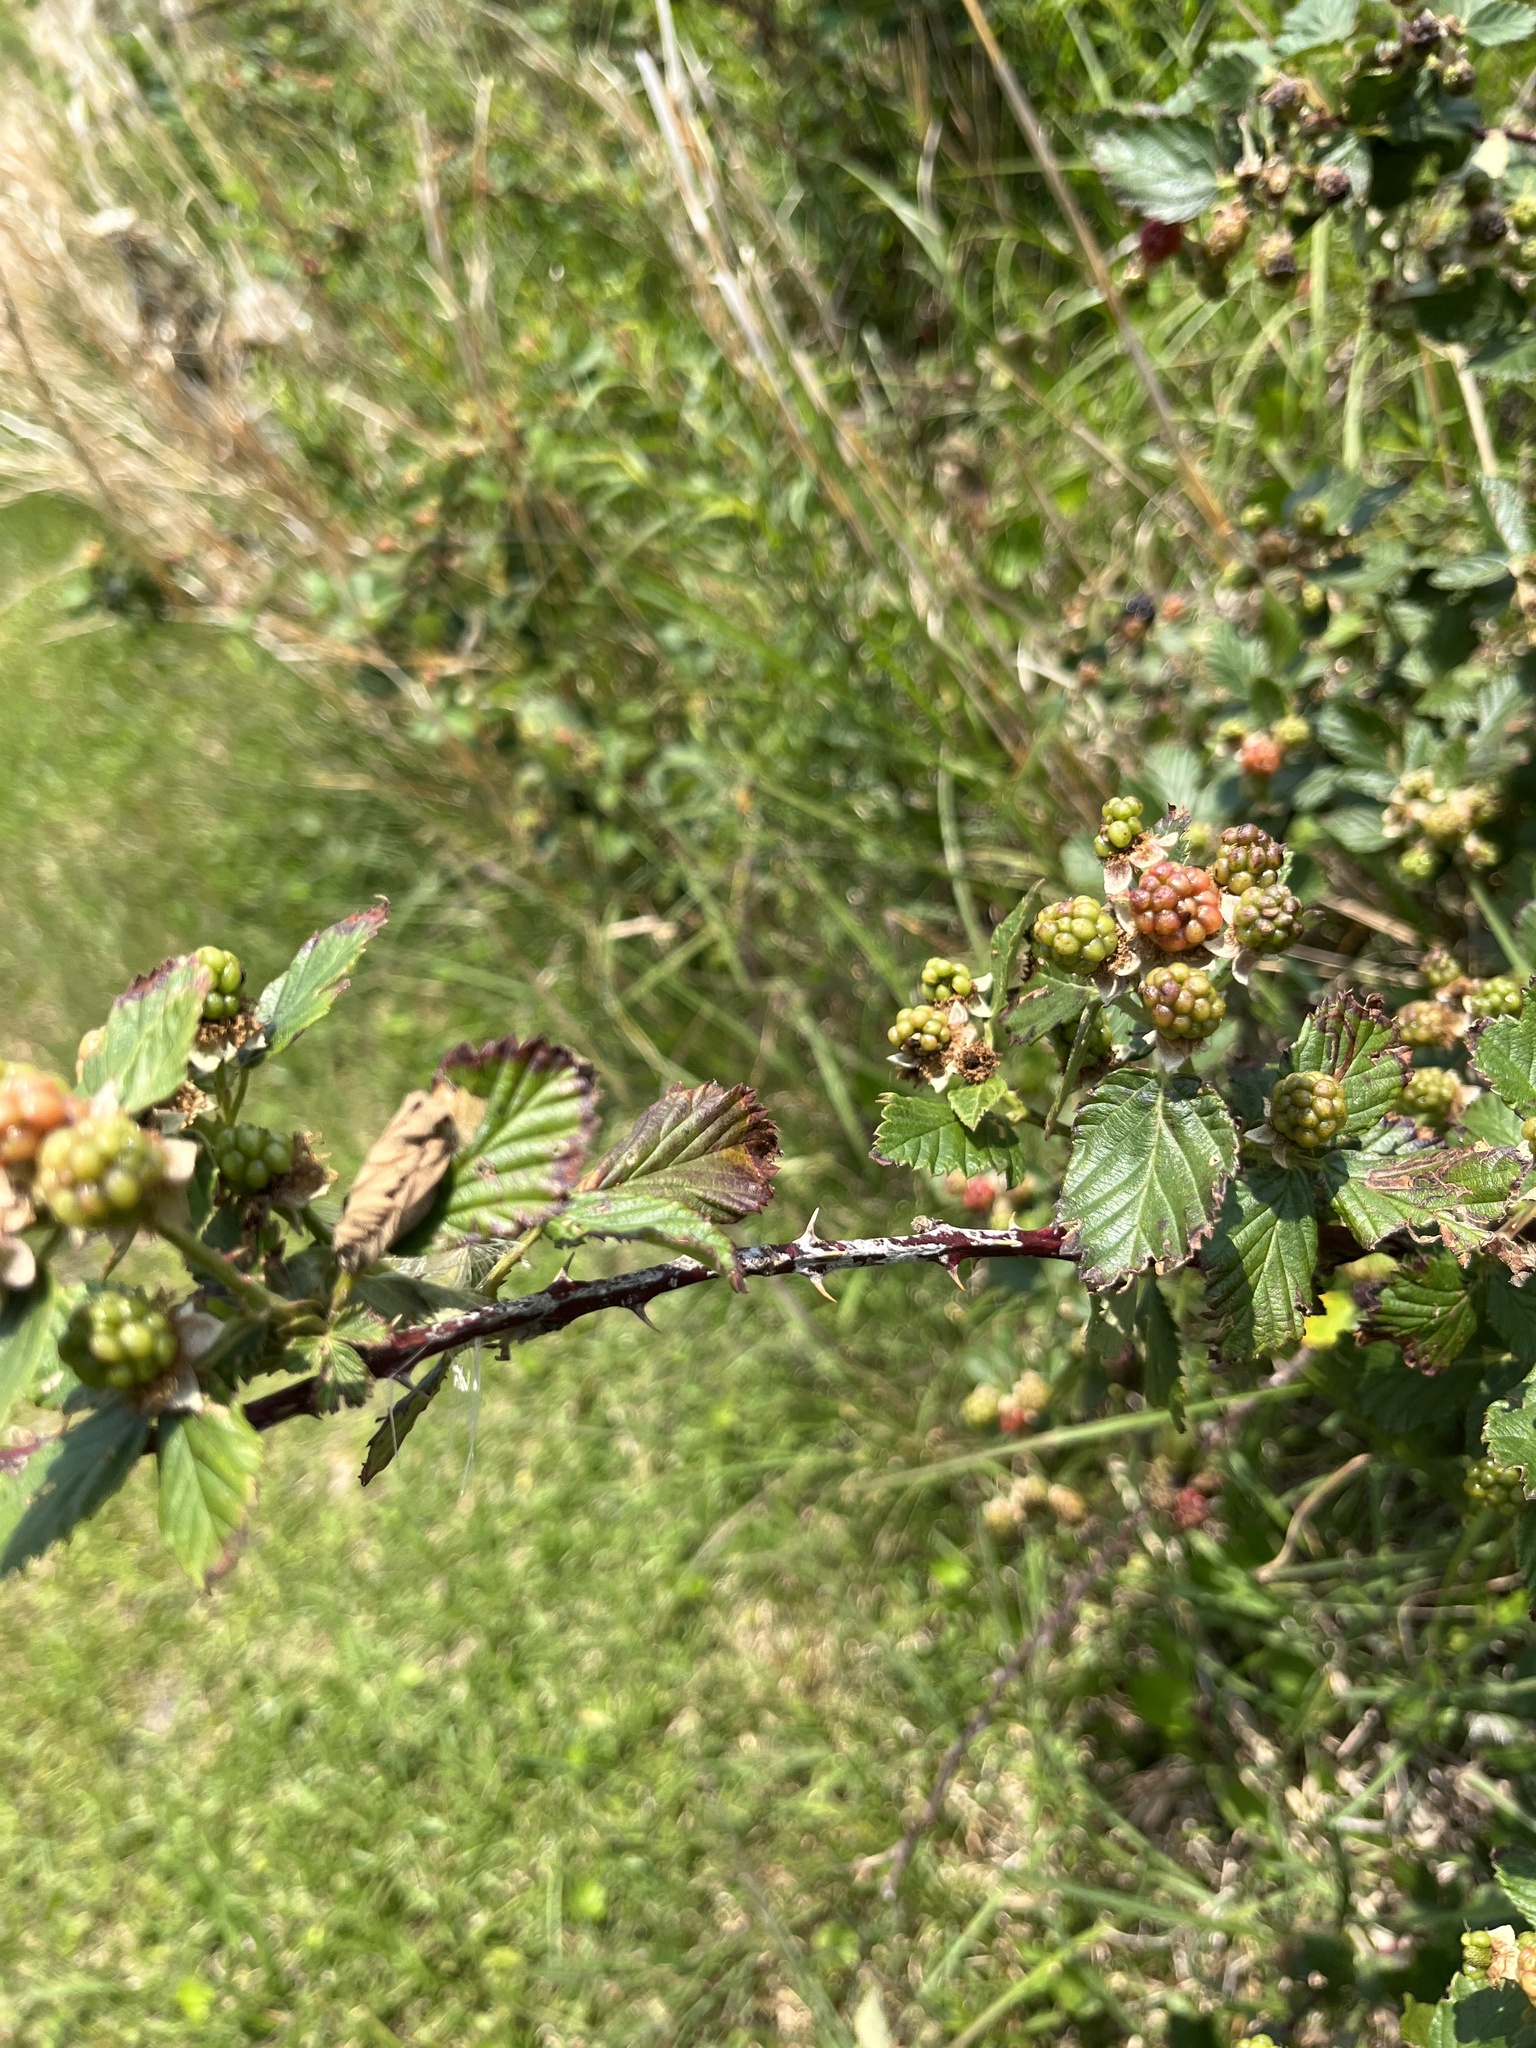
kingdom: Plantae
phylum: Tracheophyta
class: Magnoliopsida
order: Rosales
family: Rosaceae
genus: Rubus
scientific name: Rubus cuneifolius
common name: American bramble
